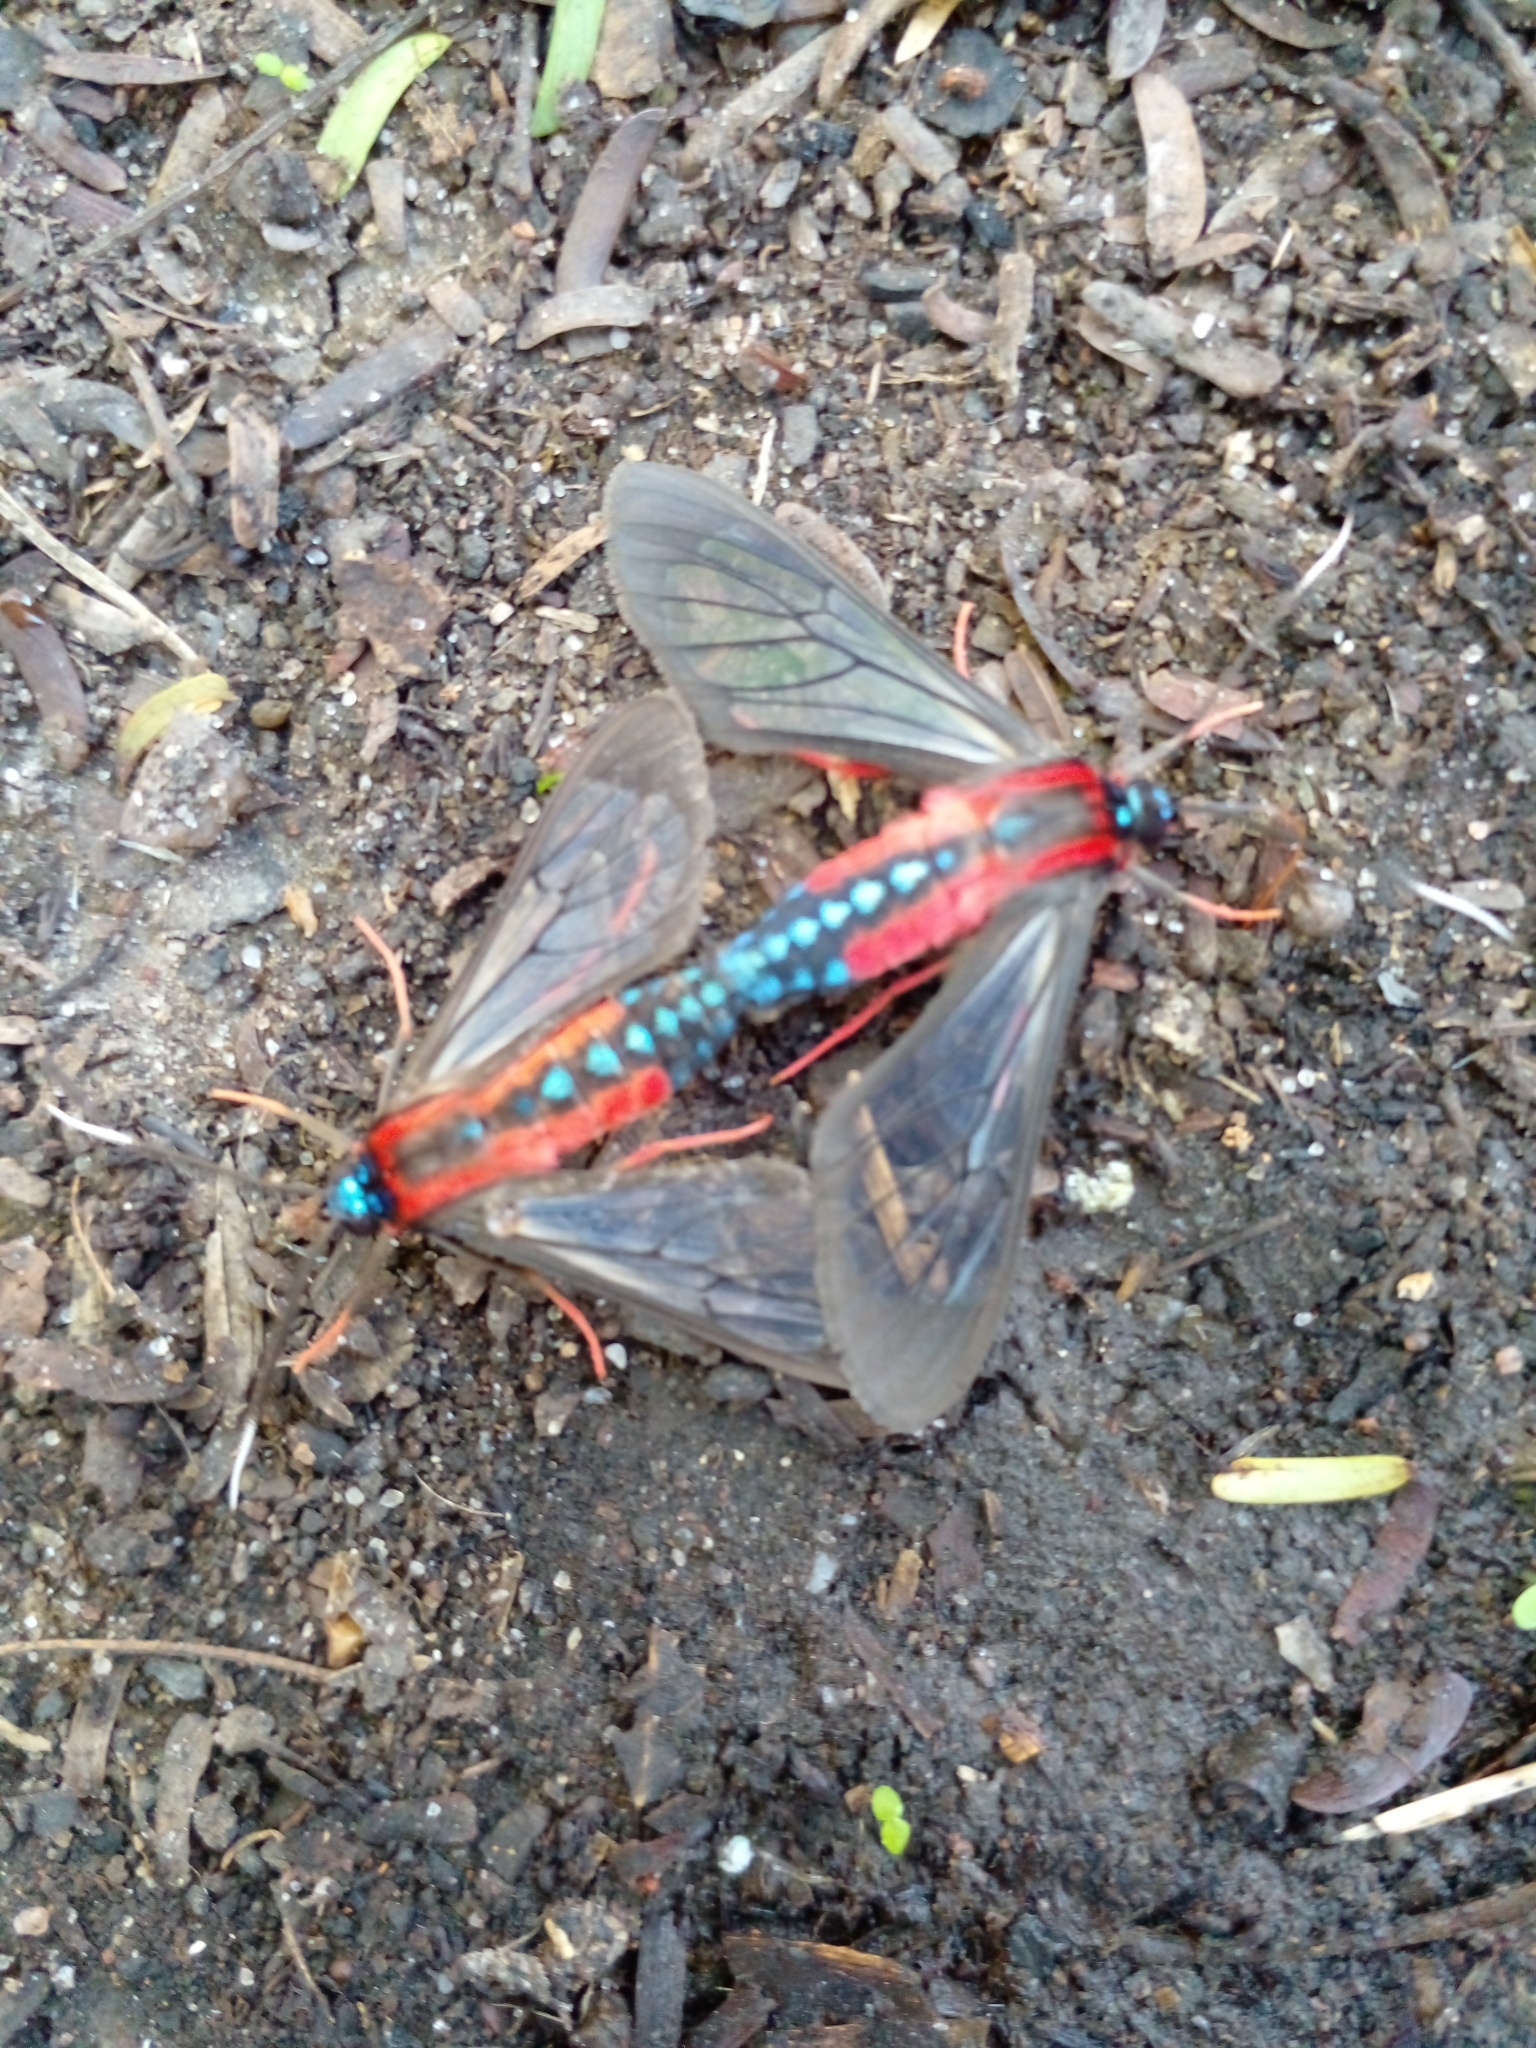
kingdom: Animalia
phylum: Arthropoda
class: Insecta
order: Lepidoptera
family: Erebidae
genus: Cosmosoma
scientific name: Cosmosoma auge
